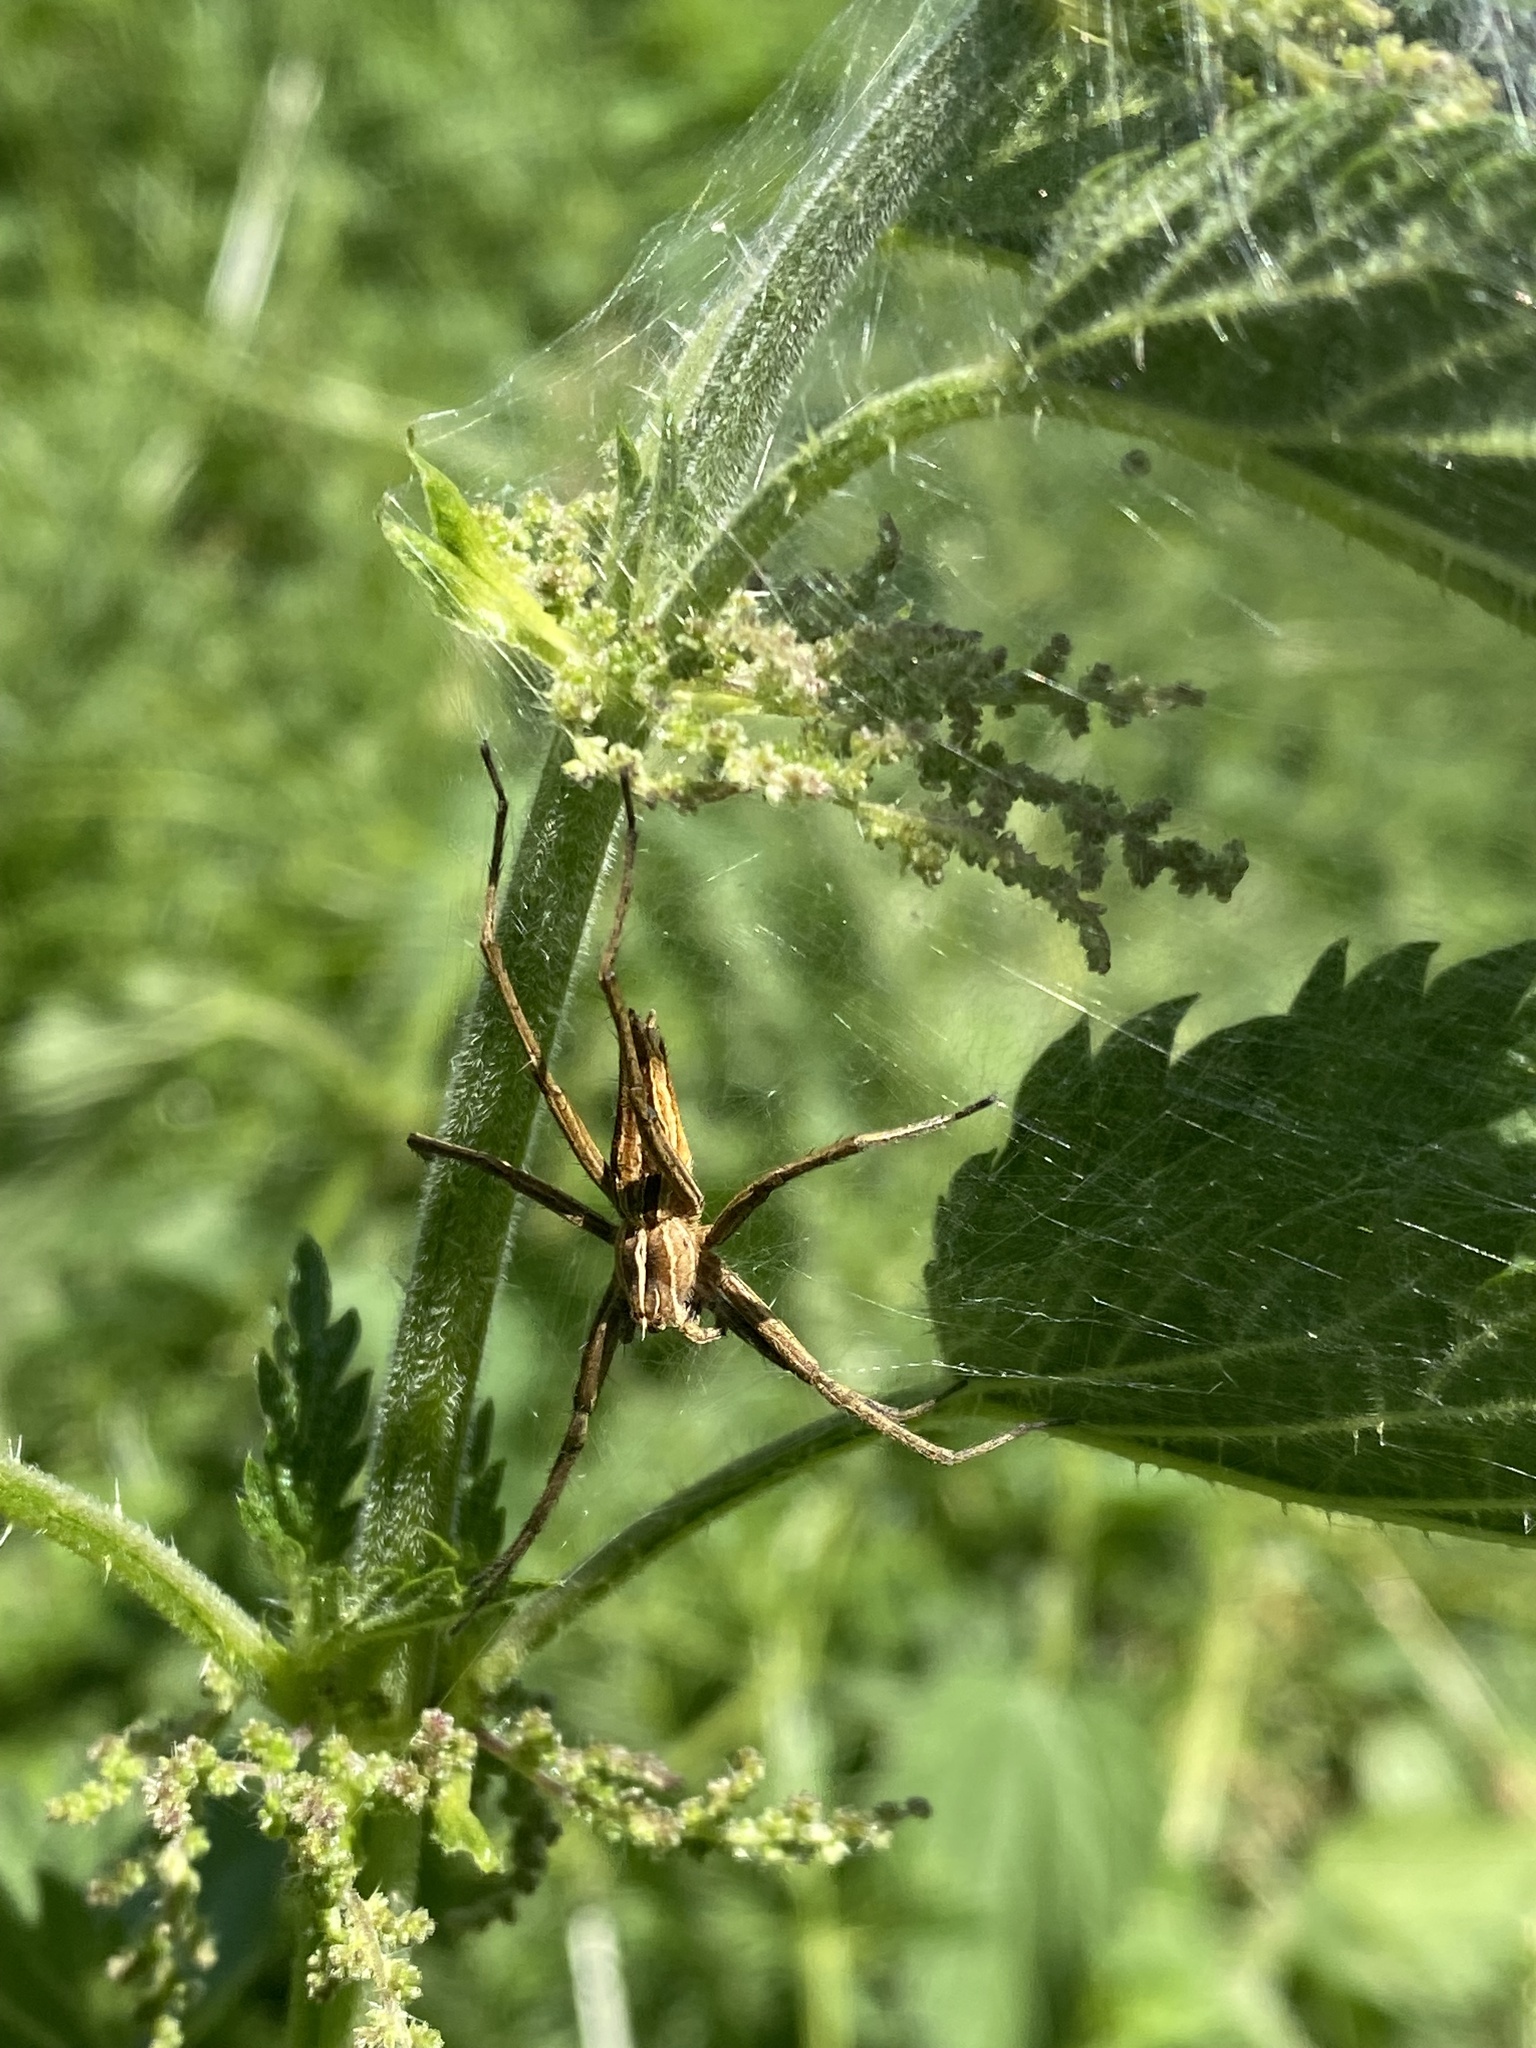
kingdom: Animalia
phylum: Arthropoda
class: Arachnida
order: Araneae
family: Pisauridae
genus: Pisaura
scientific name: Pisaura mirabilis
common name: Tent spider
